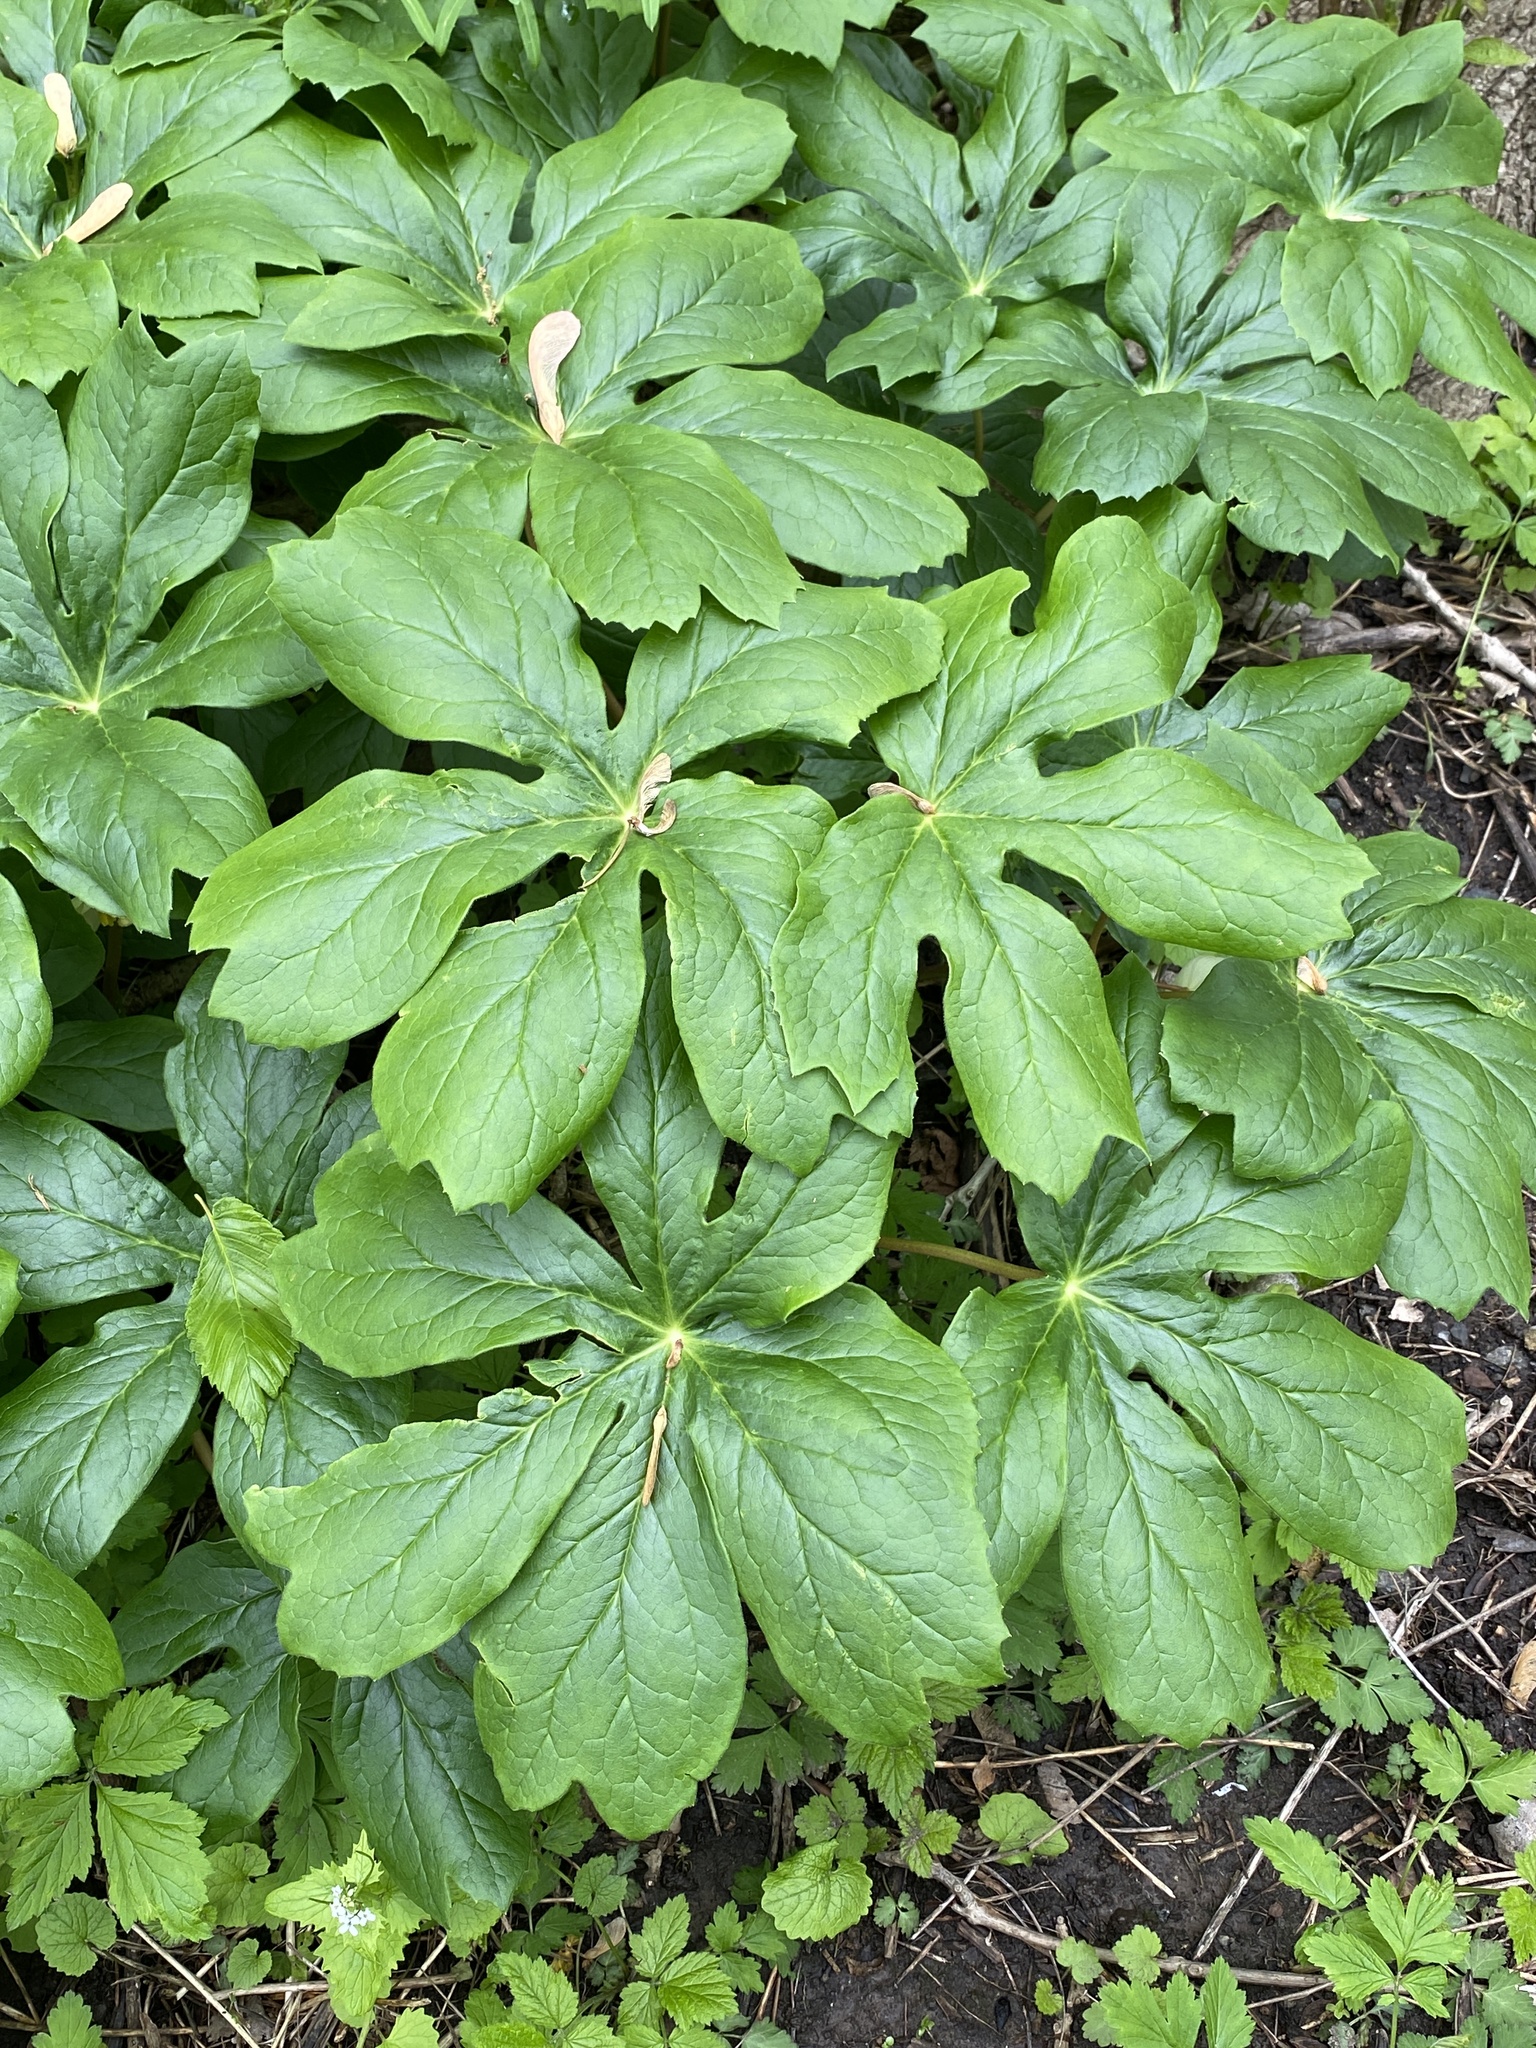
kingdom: Plantae
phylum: Tracheophyta
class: Magnoliopsida
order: Ranunculales
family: Berberidaceae
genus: Podophyllum
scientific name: Podophyllum peltatum
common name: Wild mandrake
